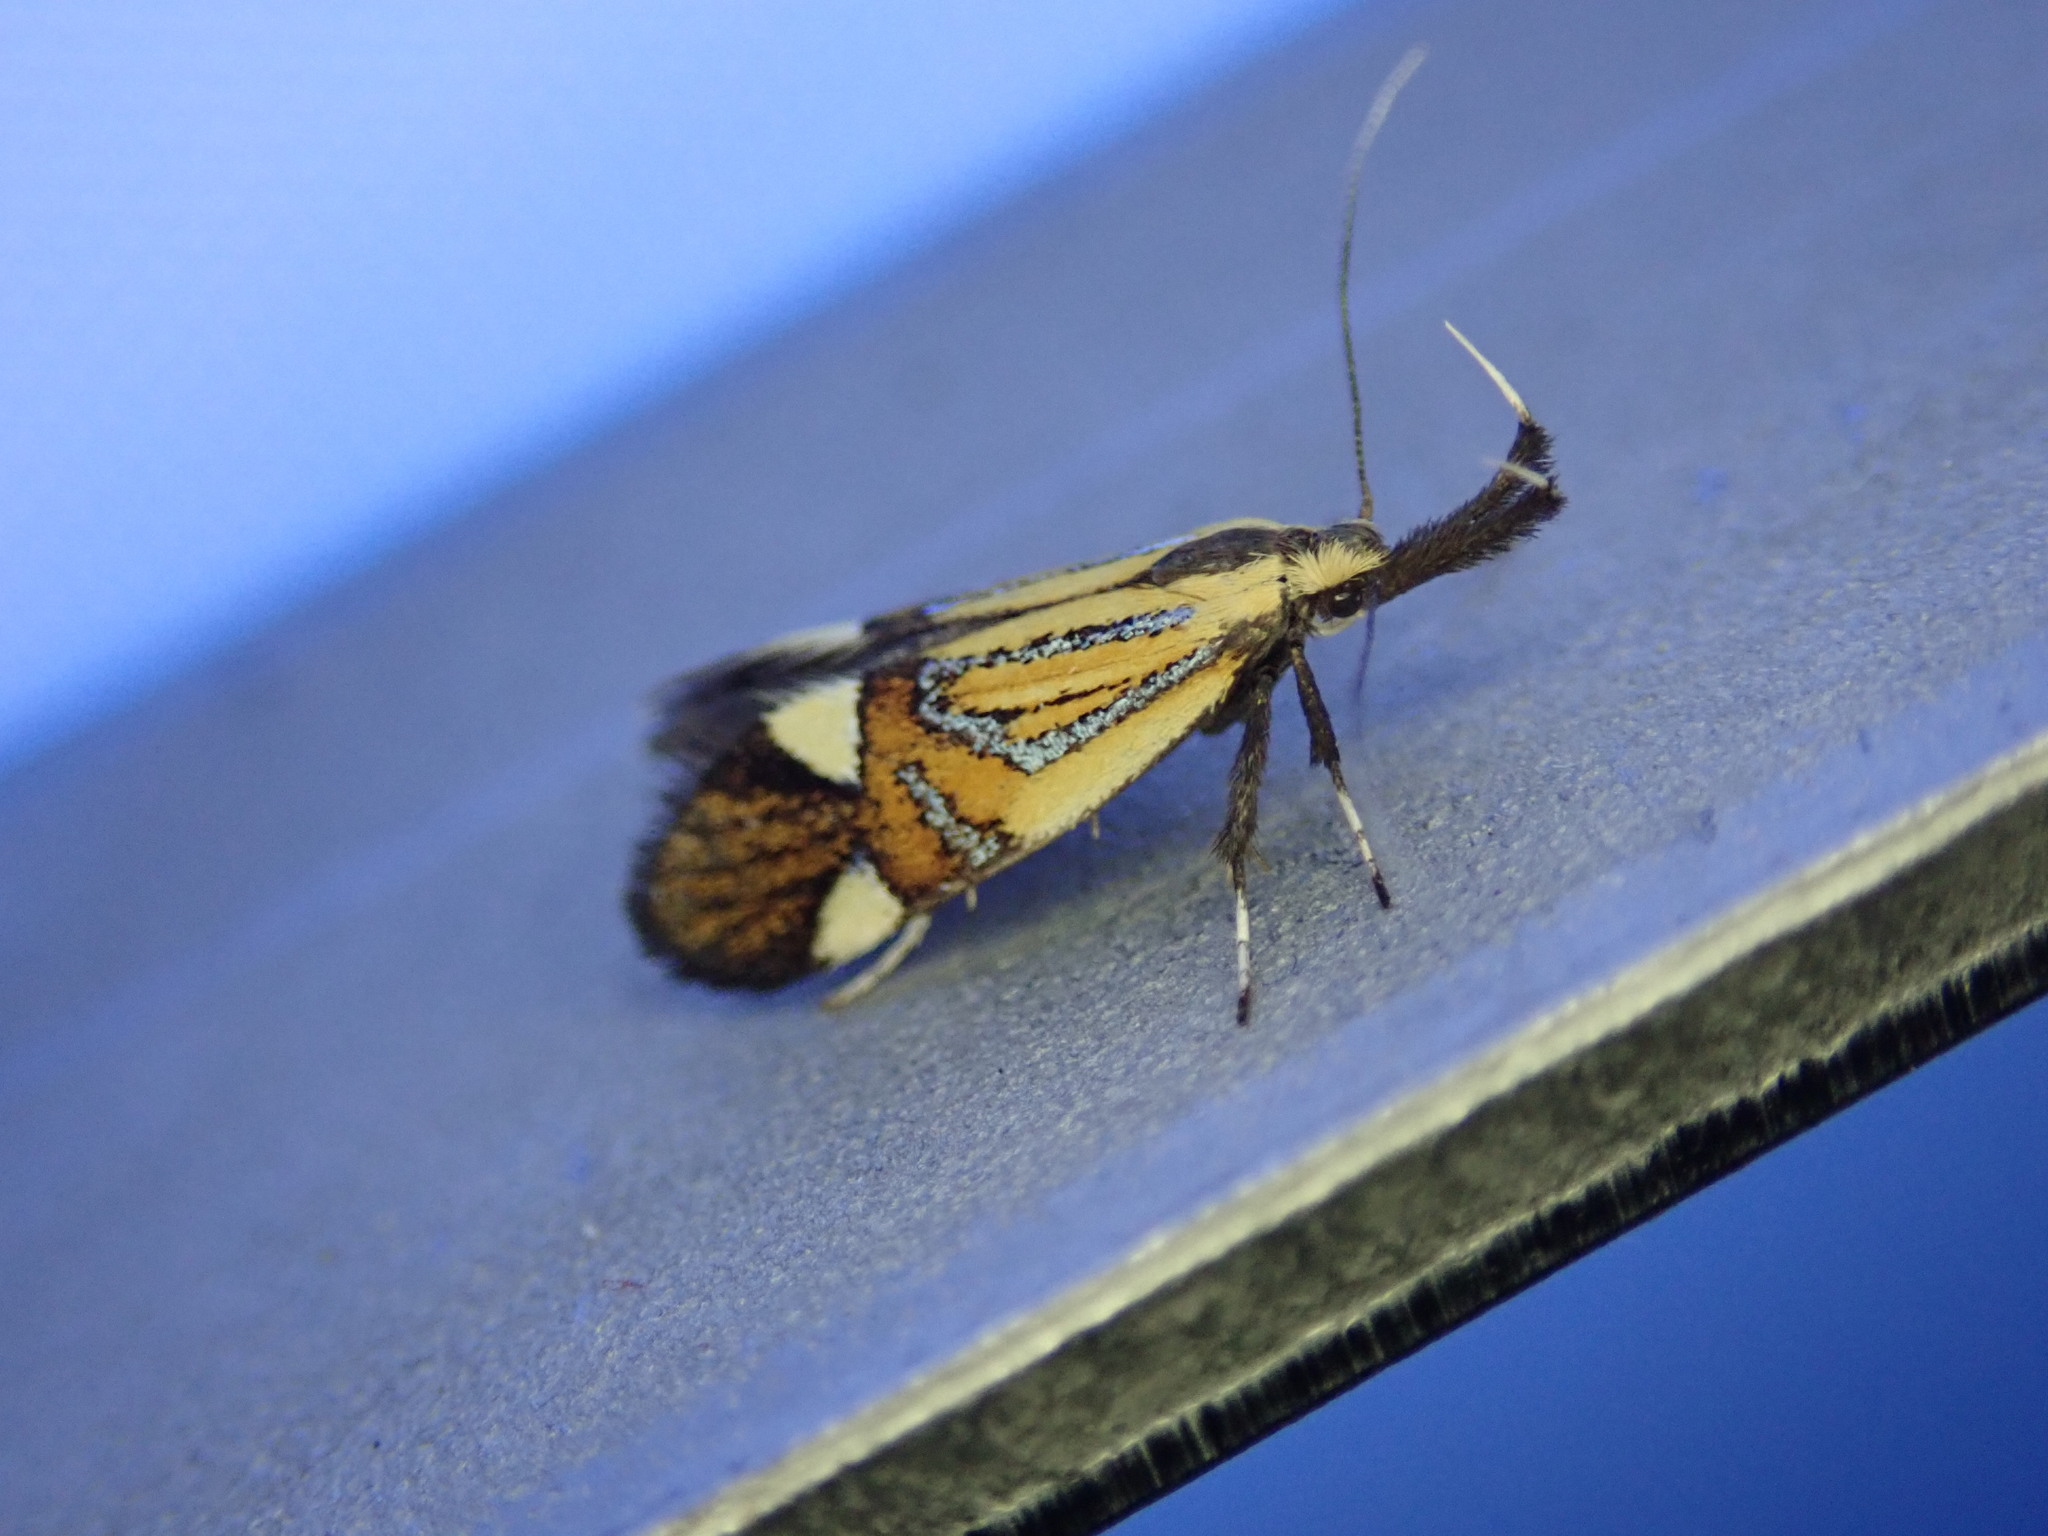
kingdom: Animalia
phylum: Arthropoda
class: Insecta
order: Lepidoptera
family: Oecophoridae
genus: Oecophora
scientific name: Oecophora Alabonia geoffrella
